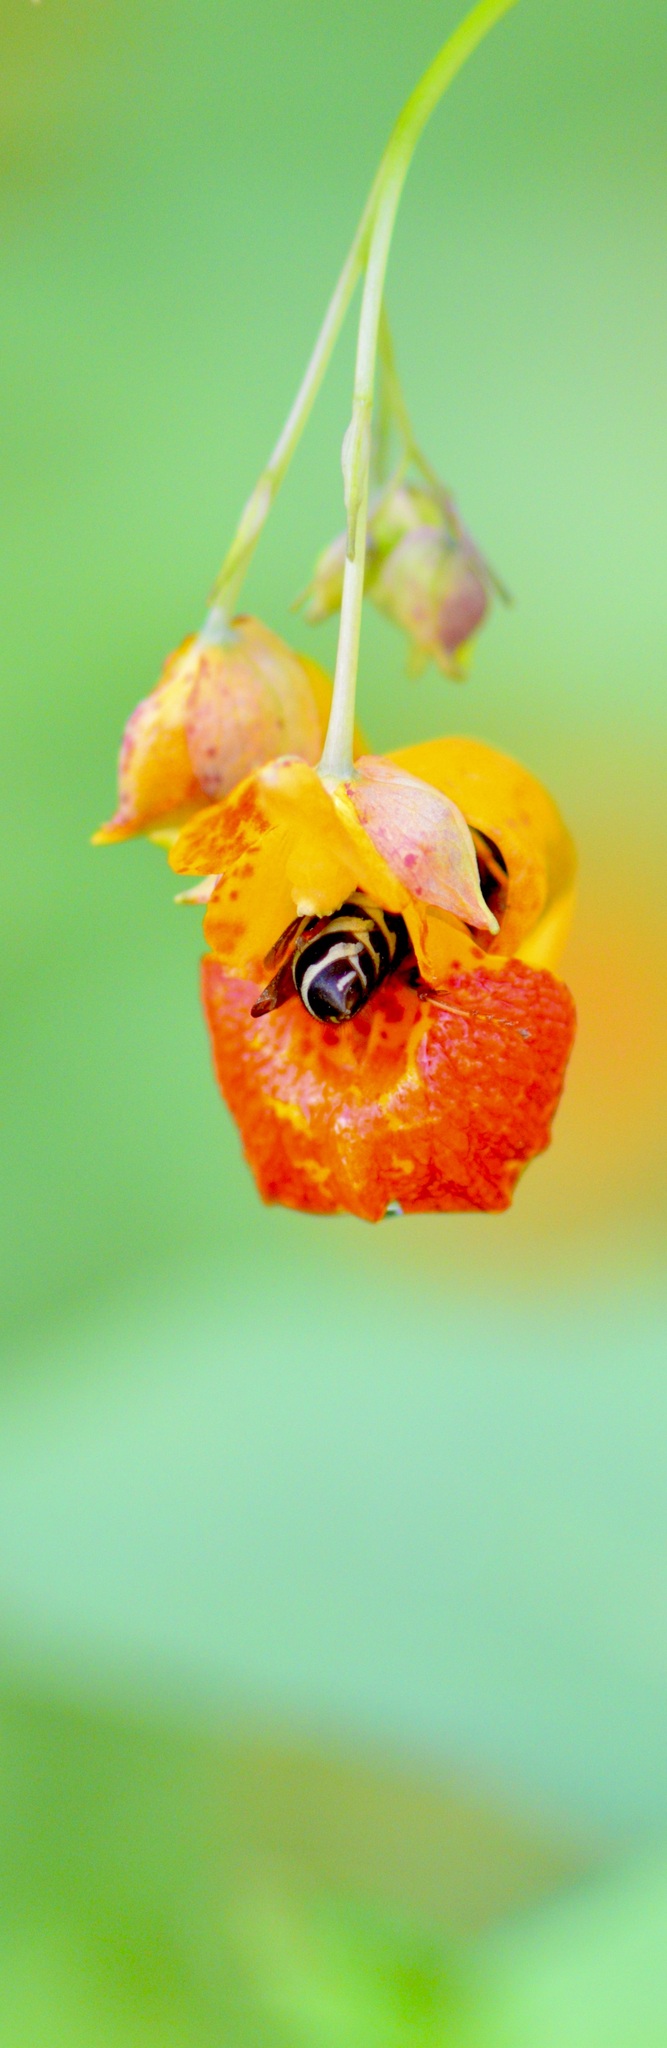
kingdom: Animalia
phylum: Arthropoda
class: Insecta
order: Hymenoptera
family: Vespidae
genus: Vespula
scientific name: Vespula consobrina
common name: Blackjacket
